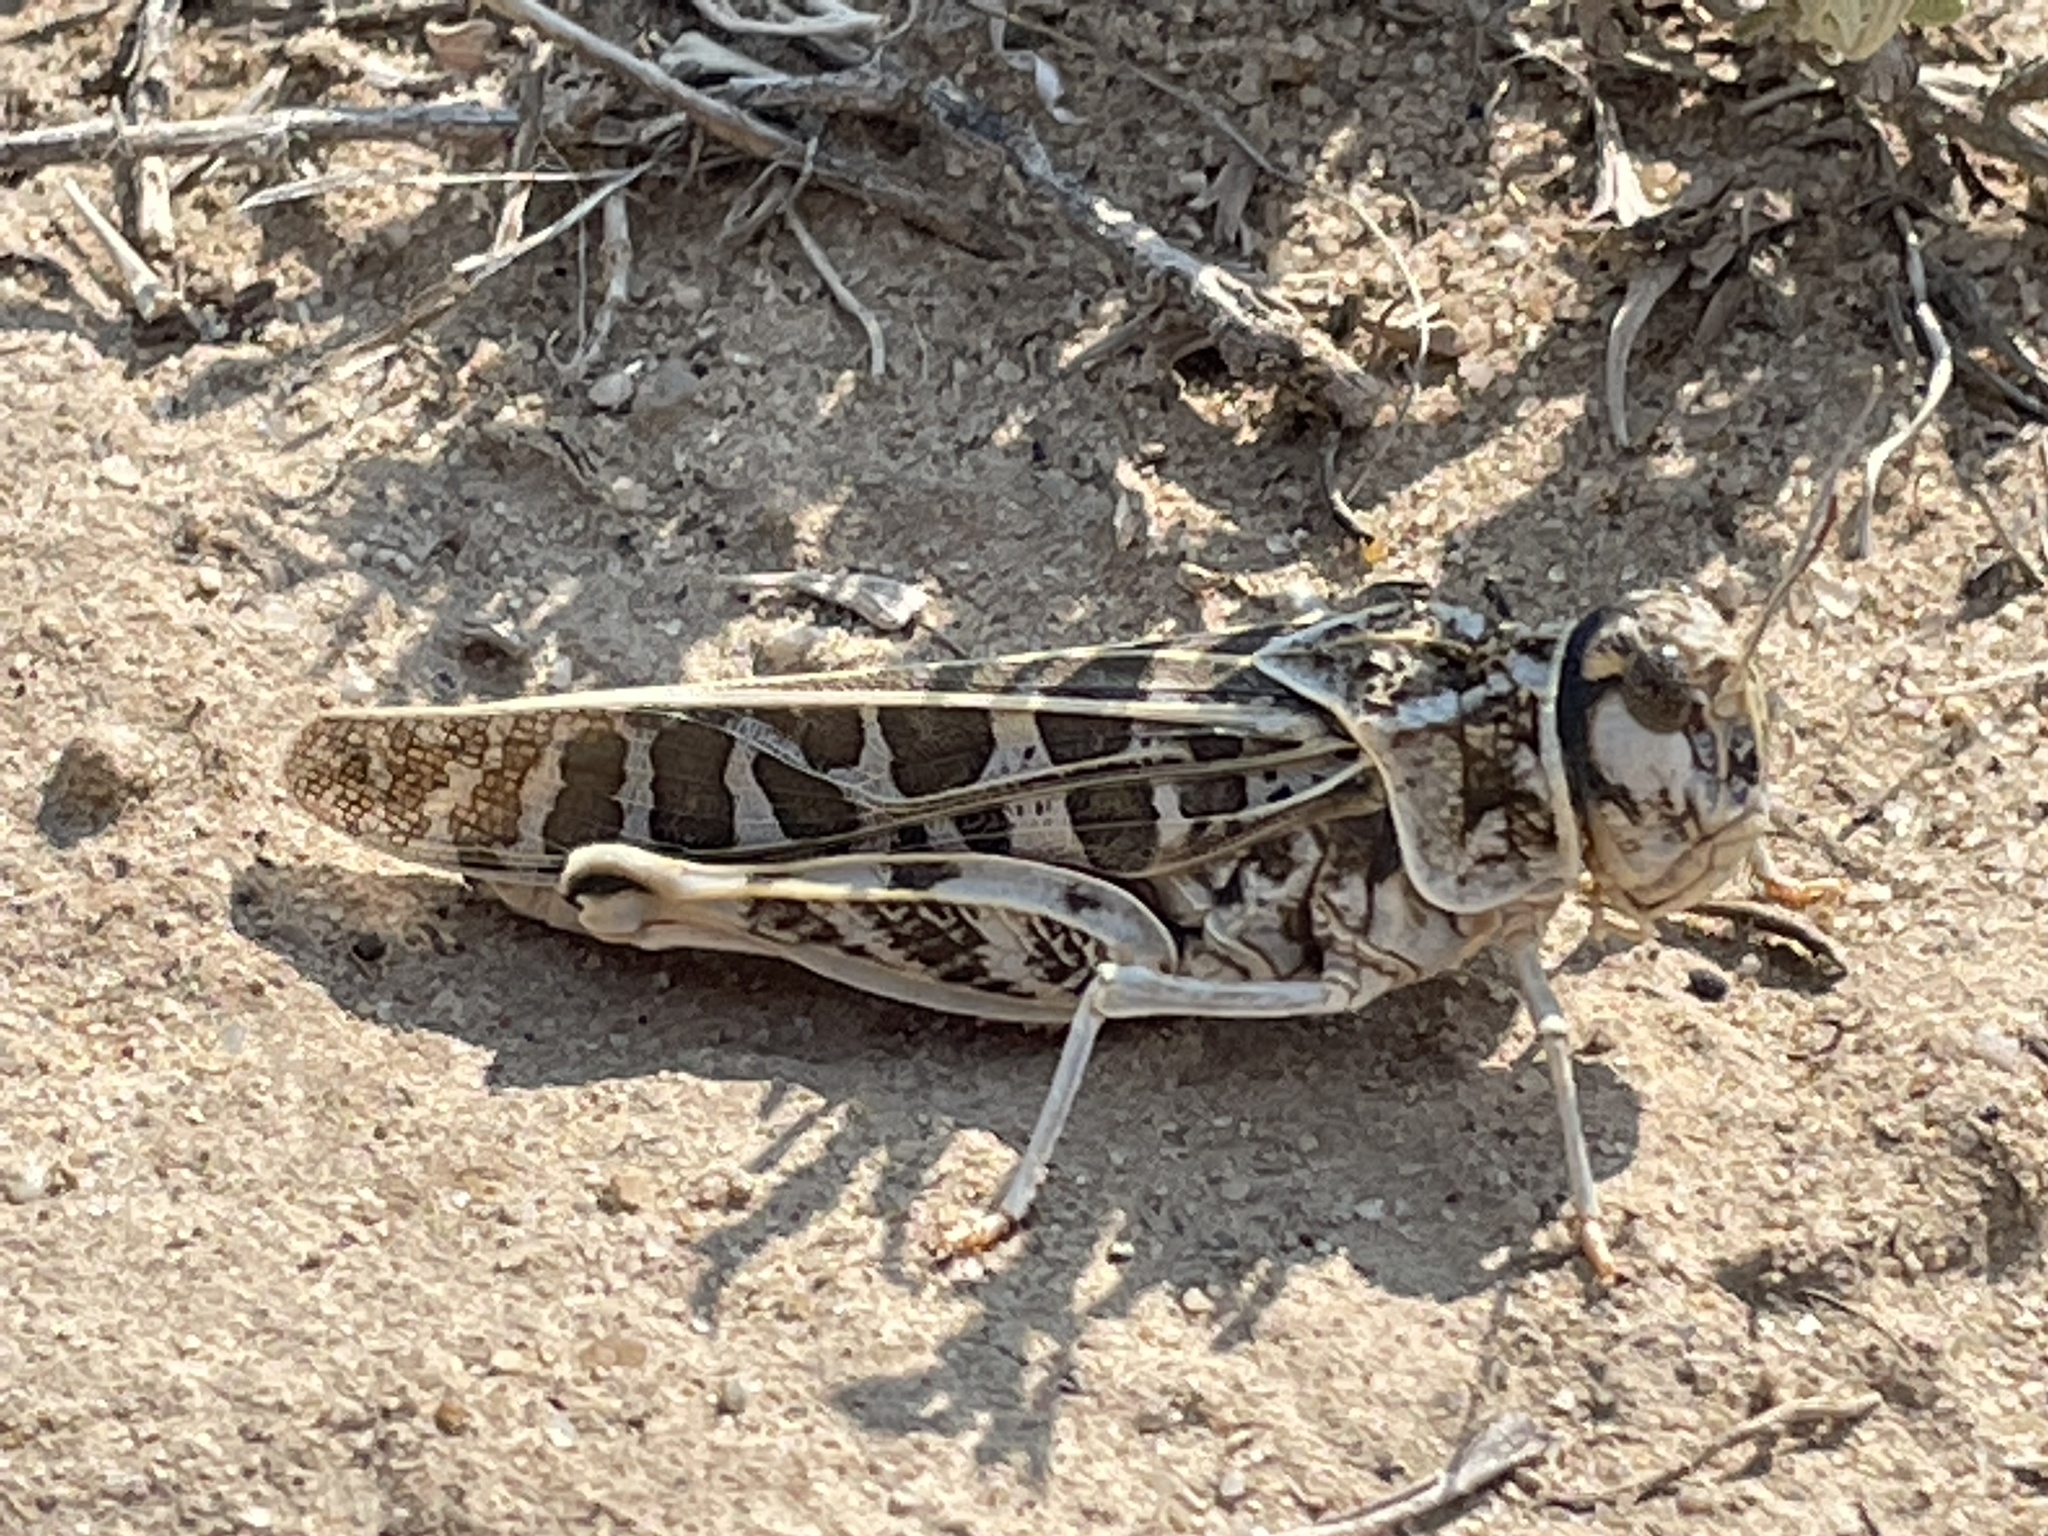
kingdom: Animalia
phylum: Arthropoda
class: Insecta
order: Orthoptera
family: Acrididae
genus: Xanthippus
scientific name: Xanthippus corallipes
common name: Redshanked grasshopper
